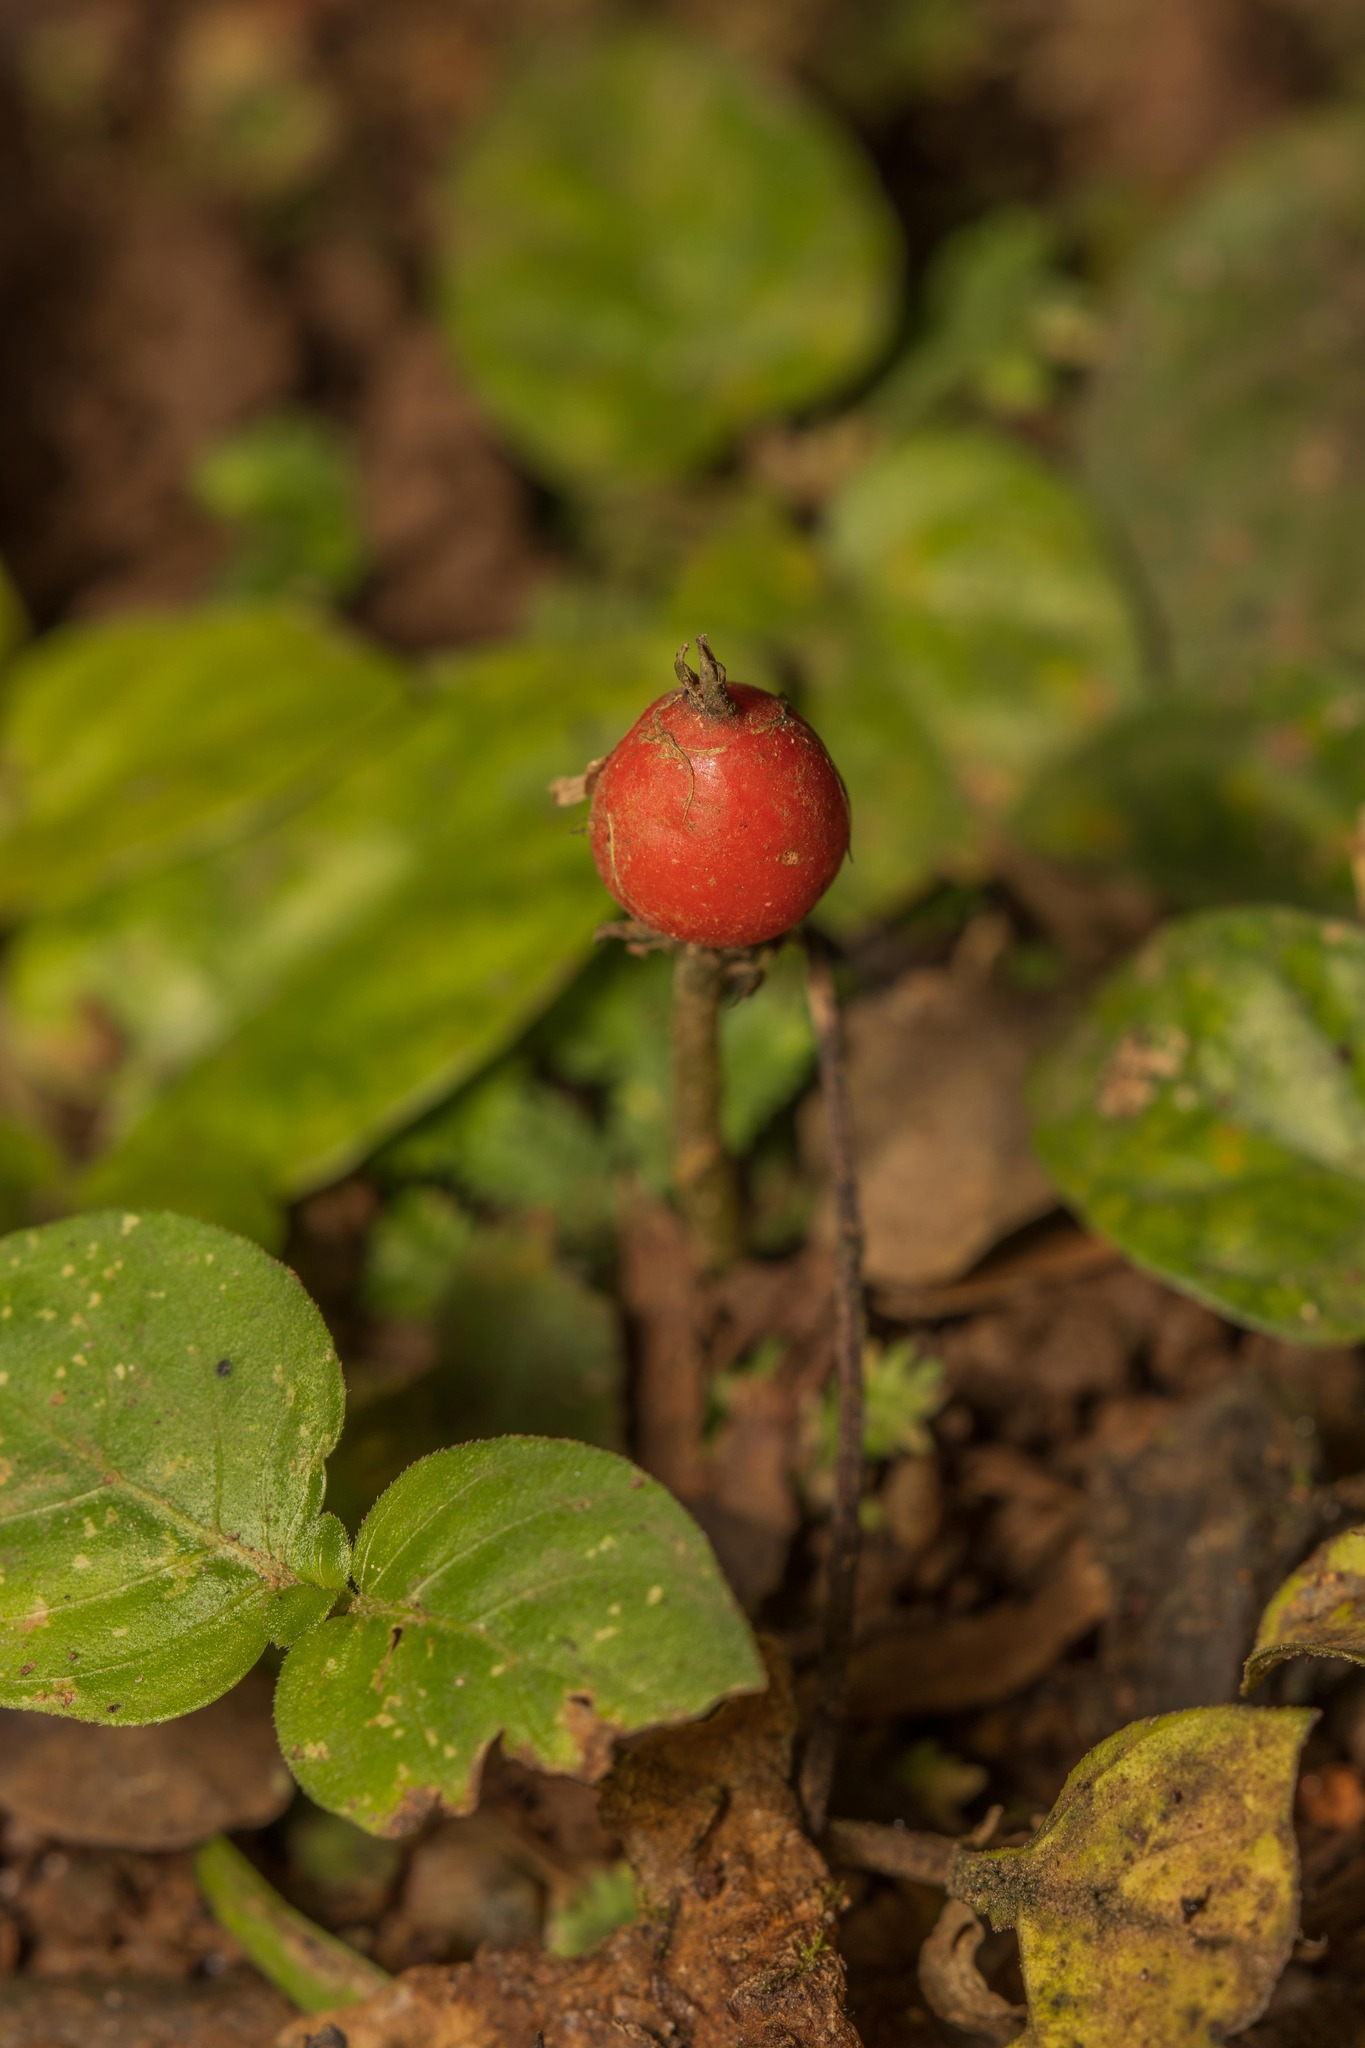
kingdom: Plantae
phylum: Tracheophyta
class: Magnoliopsida
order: Gentianales
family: Rubiaceae
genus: Geophila
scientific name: Geophila repens
